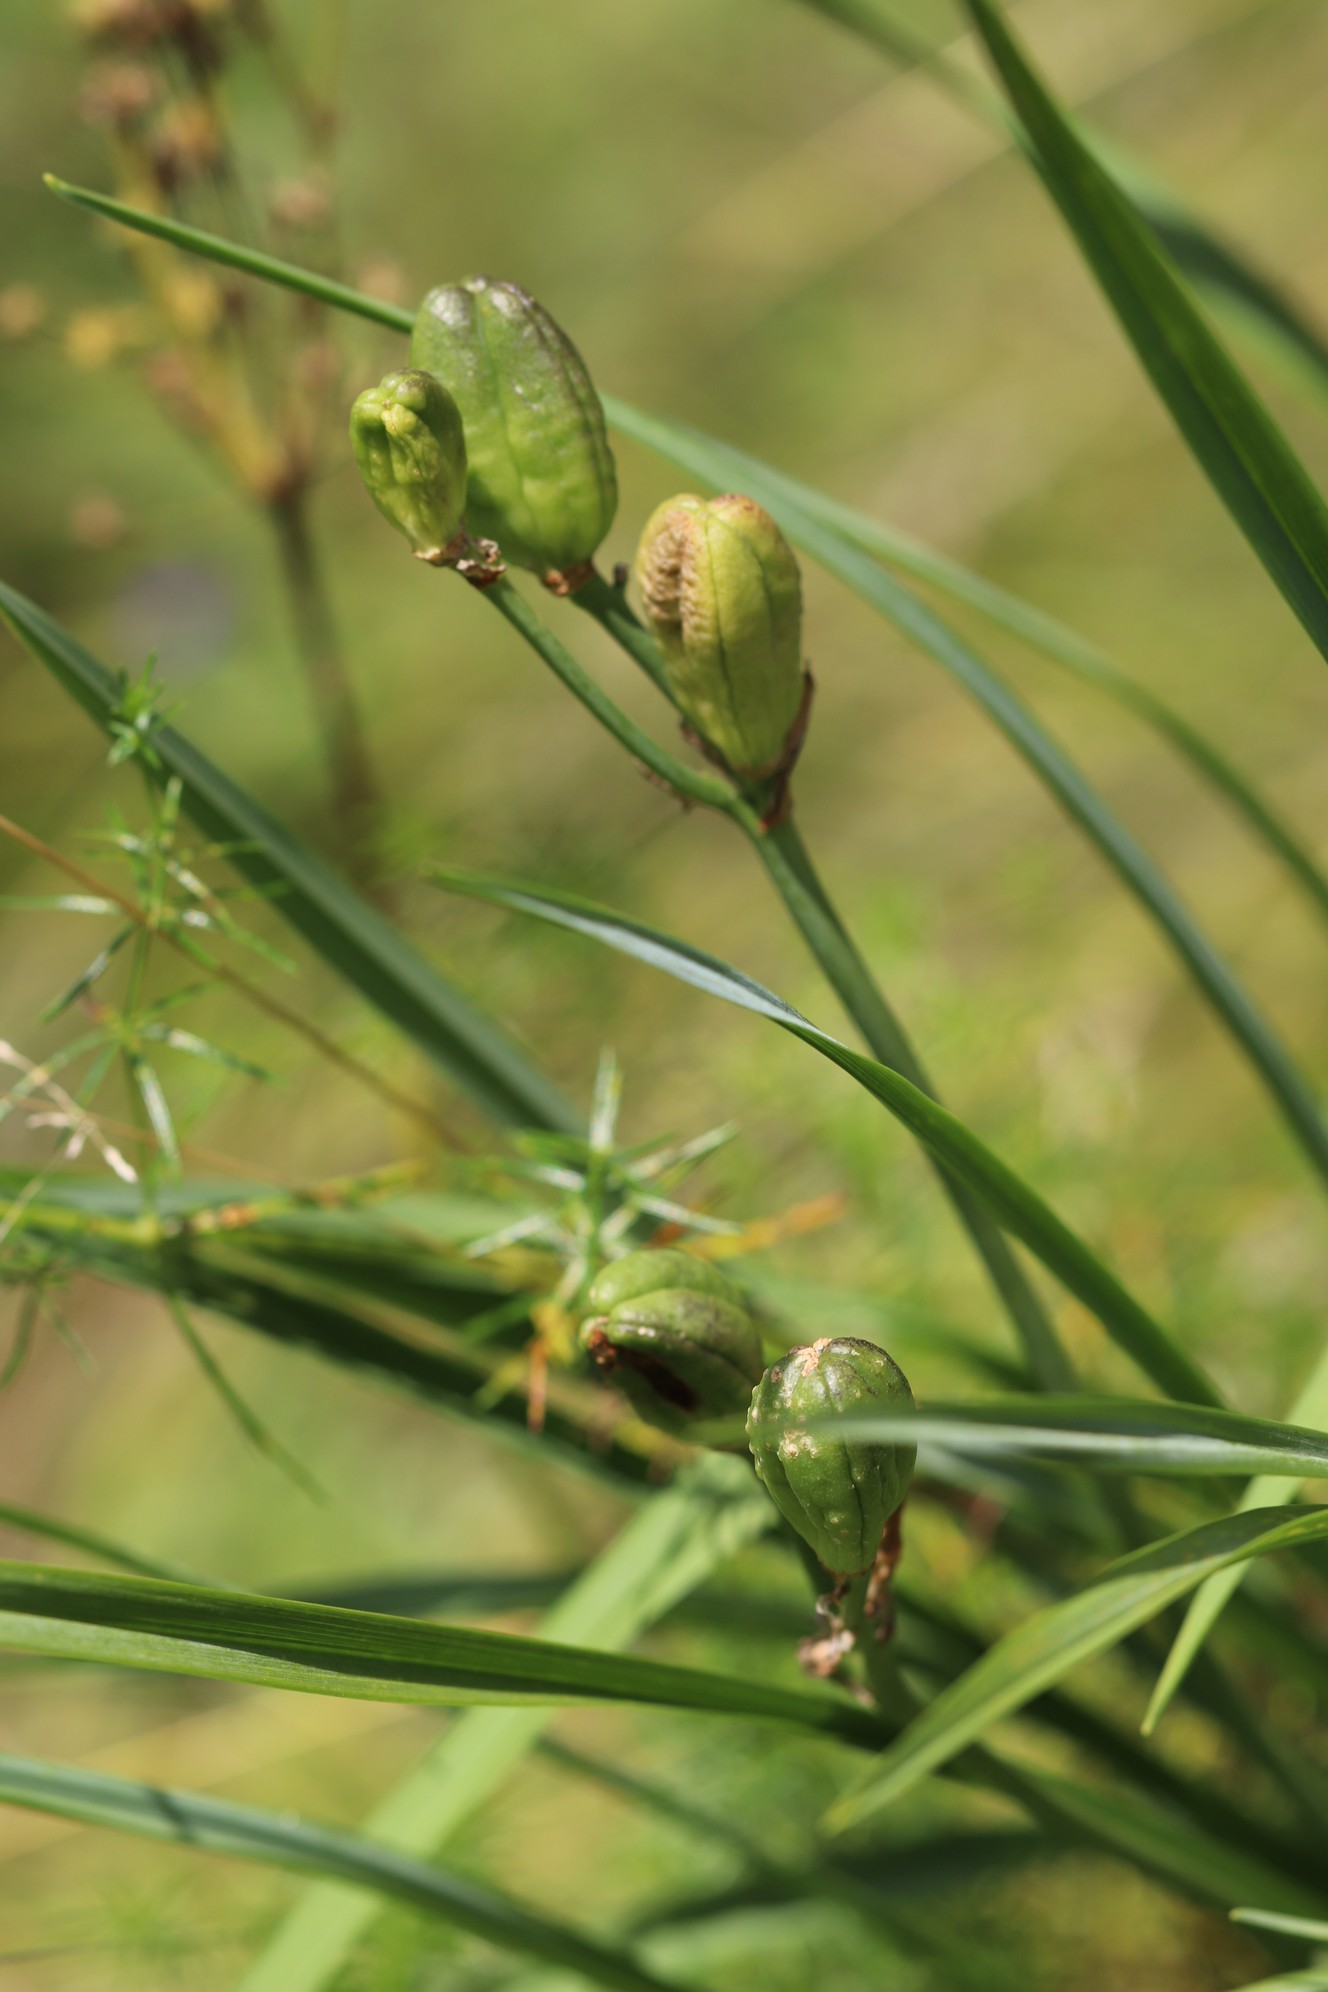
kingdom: Plantae
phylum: Tracheophyta
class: Liliopsida
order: Asparagales
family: Asphodelaceae
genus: Hemerocallis
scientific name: Hemerocallis minor
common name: Small daylily
